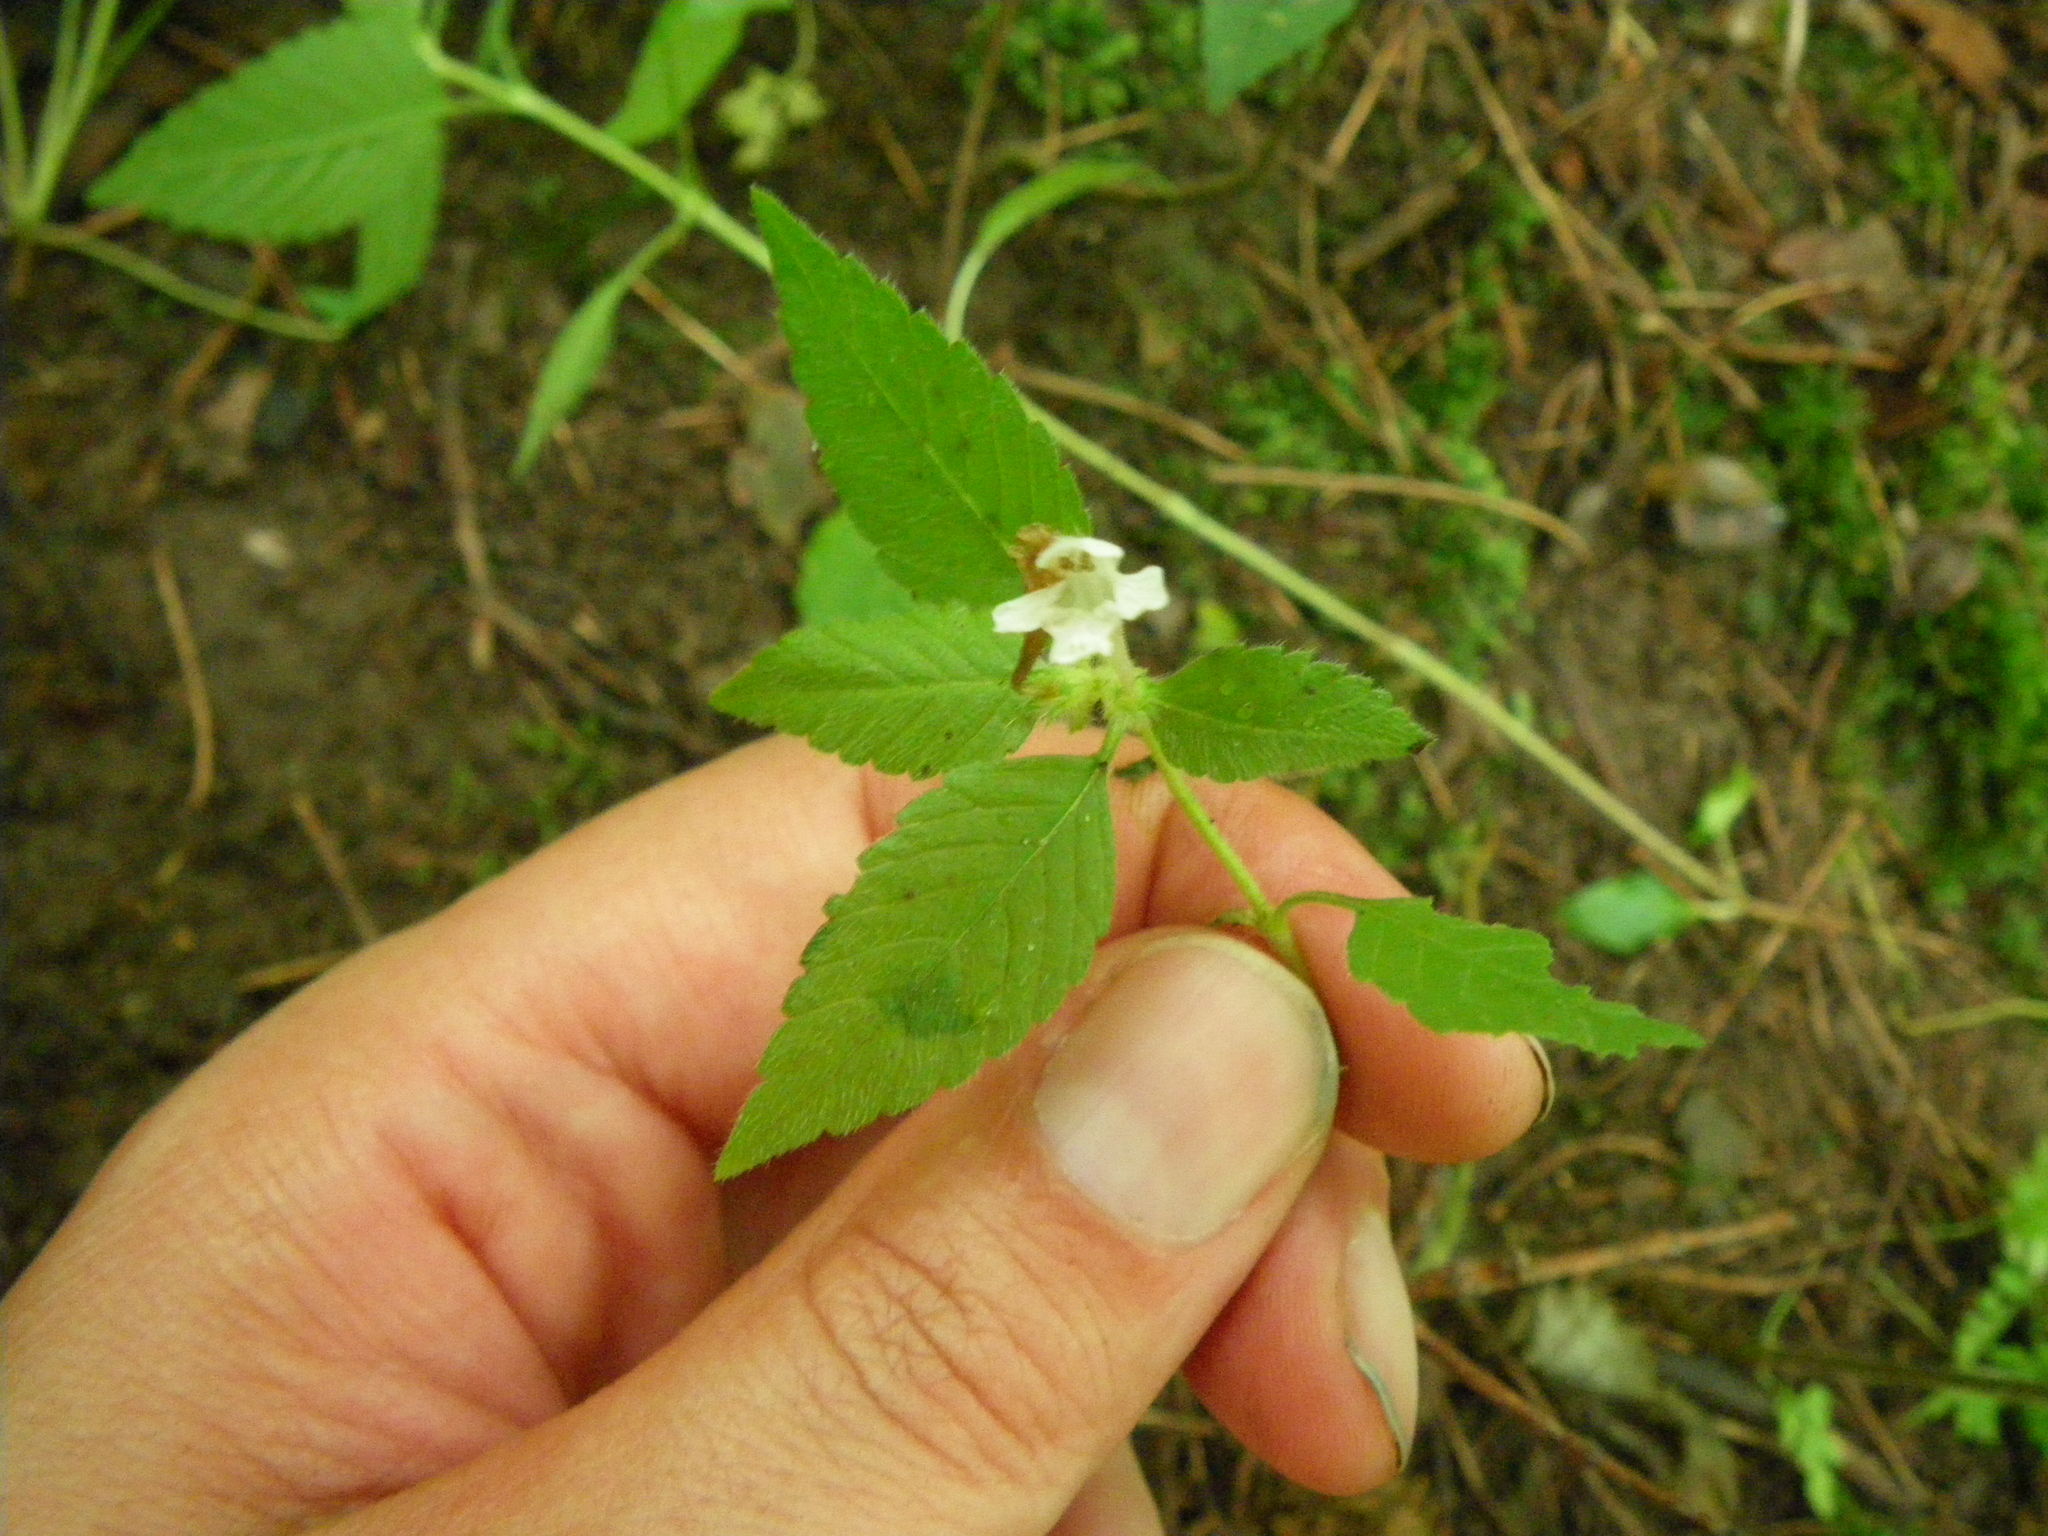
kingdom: Plantae
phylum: Tracheophyta
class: Magnoliopsida
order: Lamiales
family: Lamiaceae
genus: Galeopsis
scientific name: Galeopsis tetrahit
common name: Common hemp-nettle
